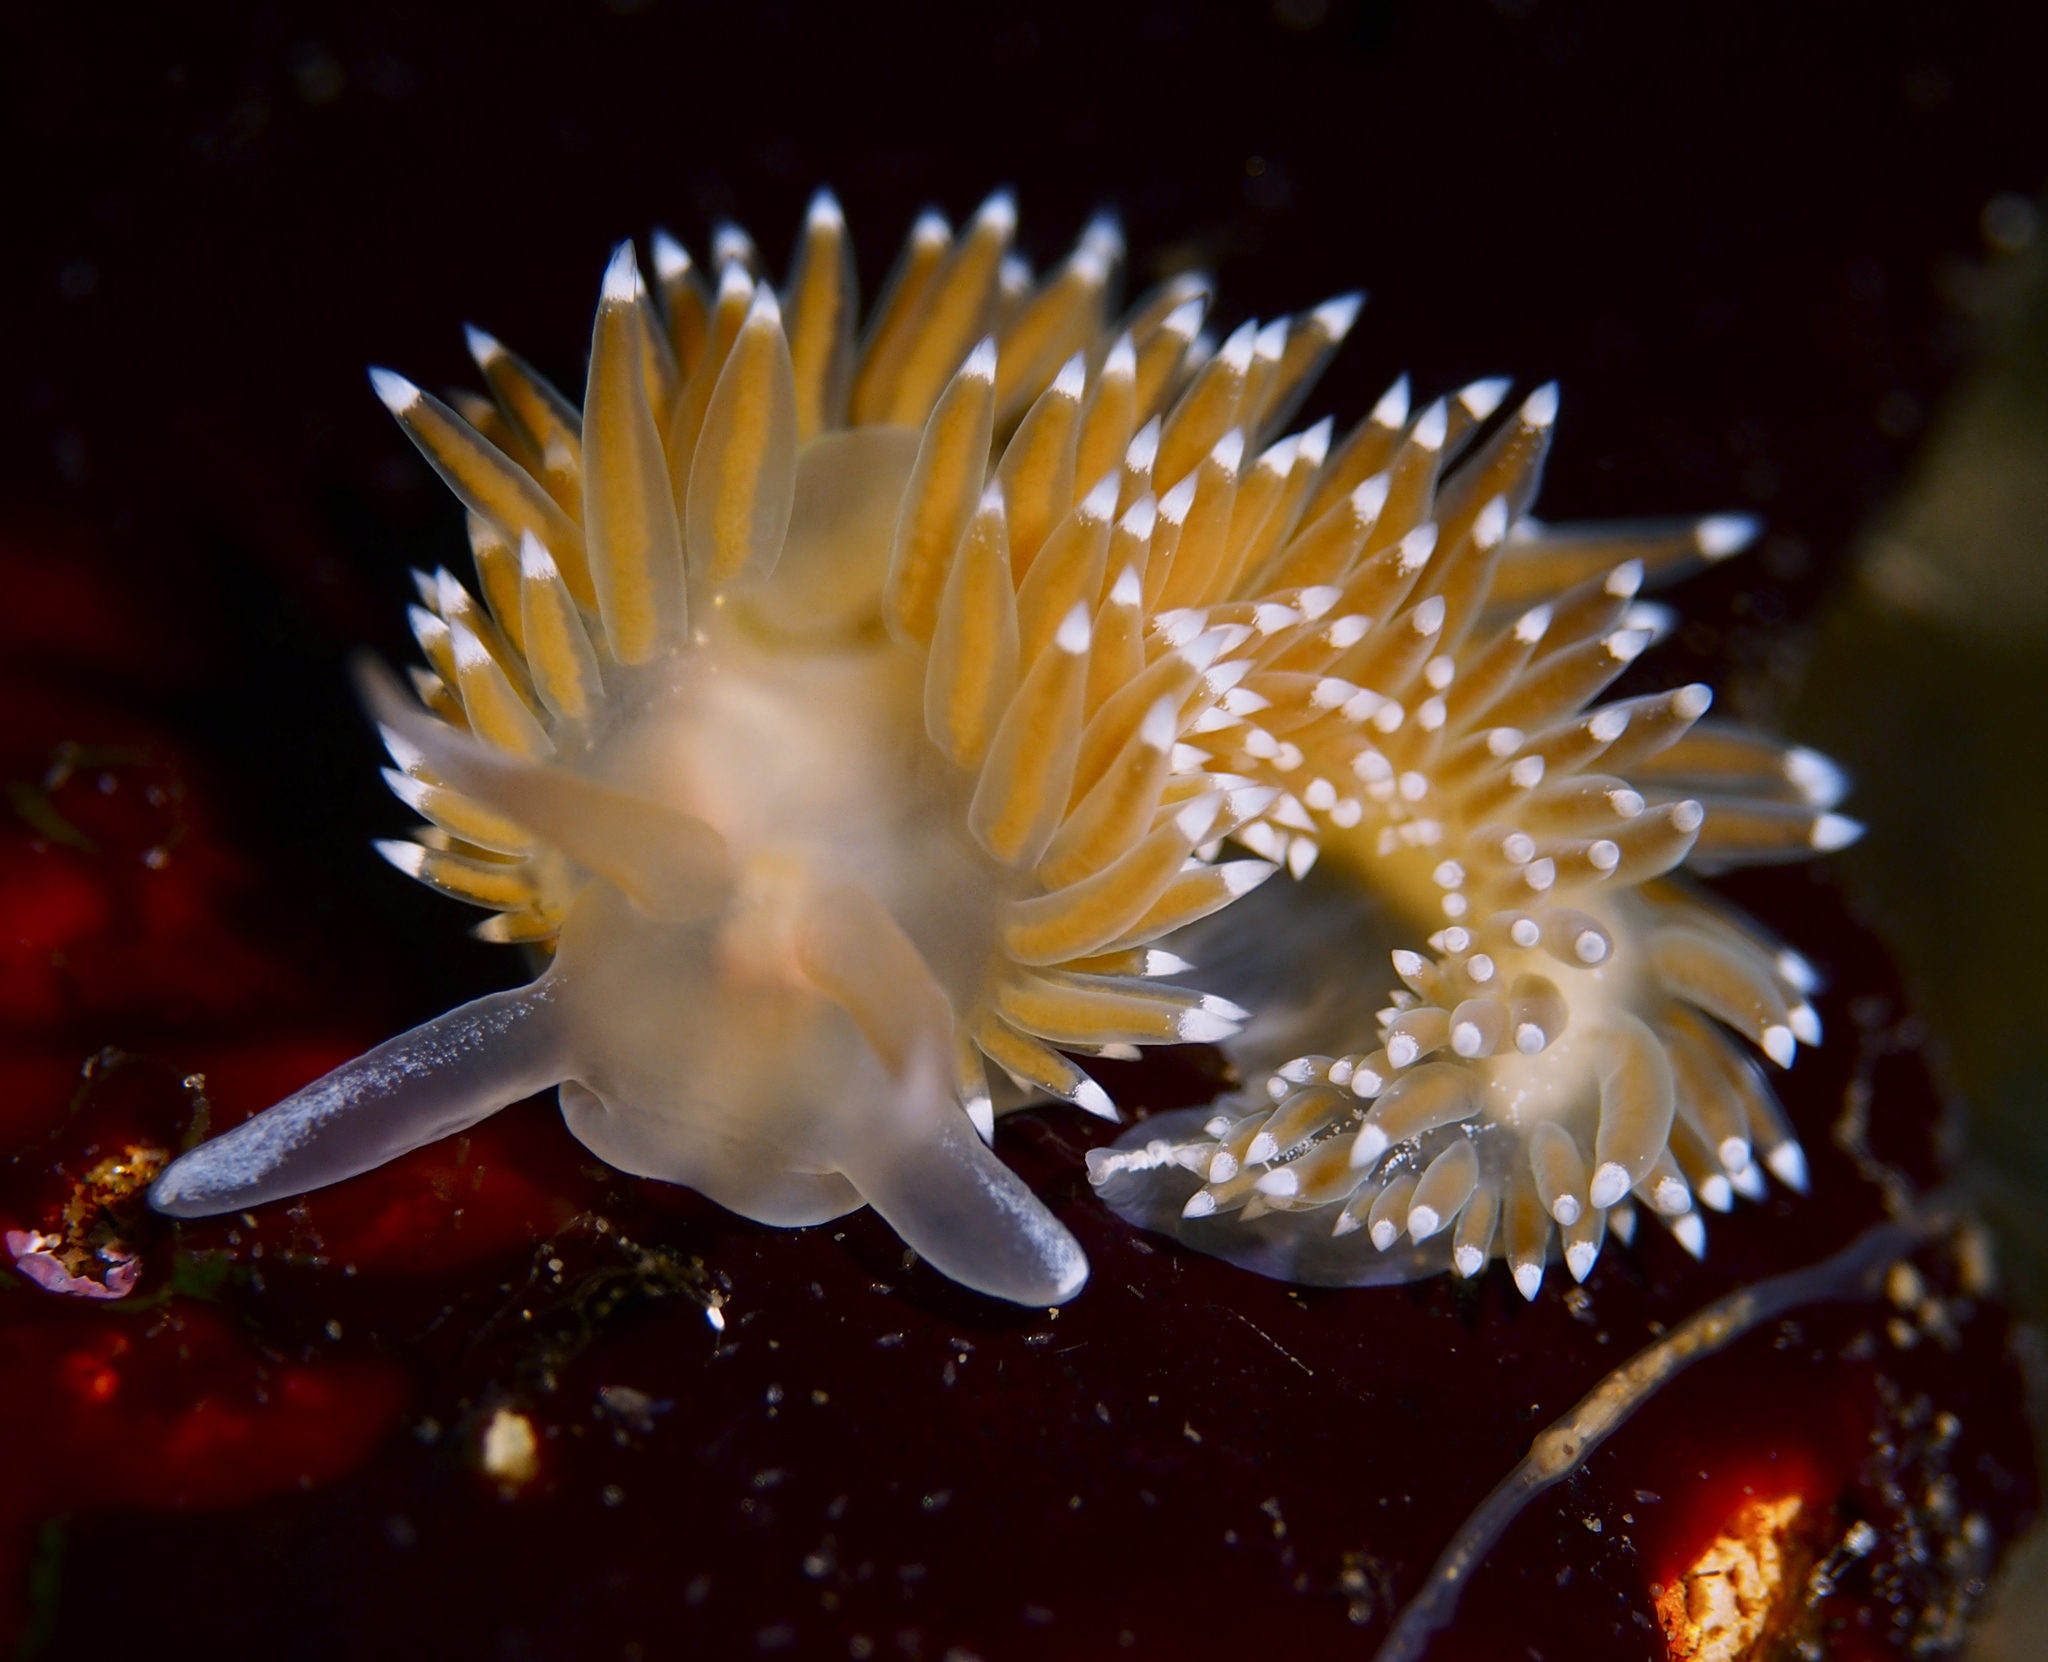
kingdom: Animalia
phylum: Mollusca
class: Gastropoda
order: Nudibranchia
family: Coryphellidae
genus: Coryphella
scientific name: Coryphella nobilis
